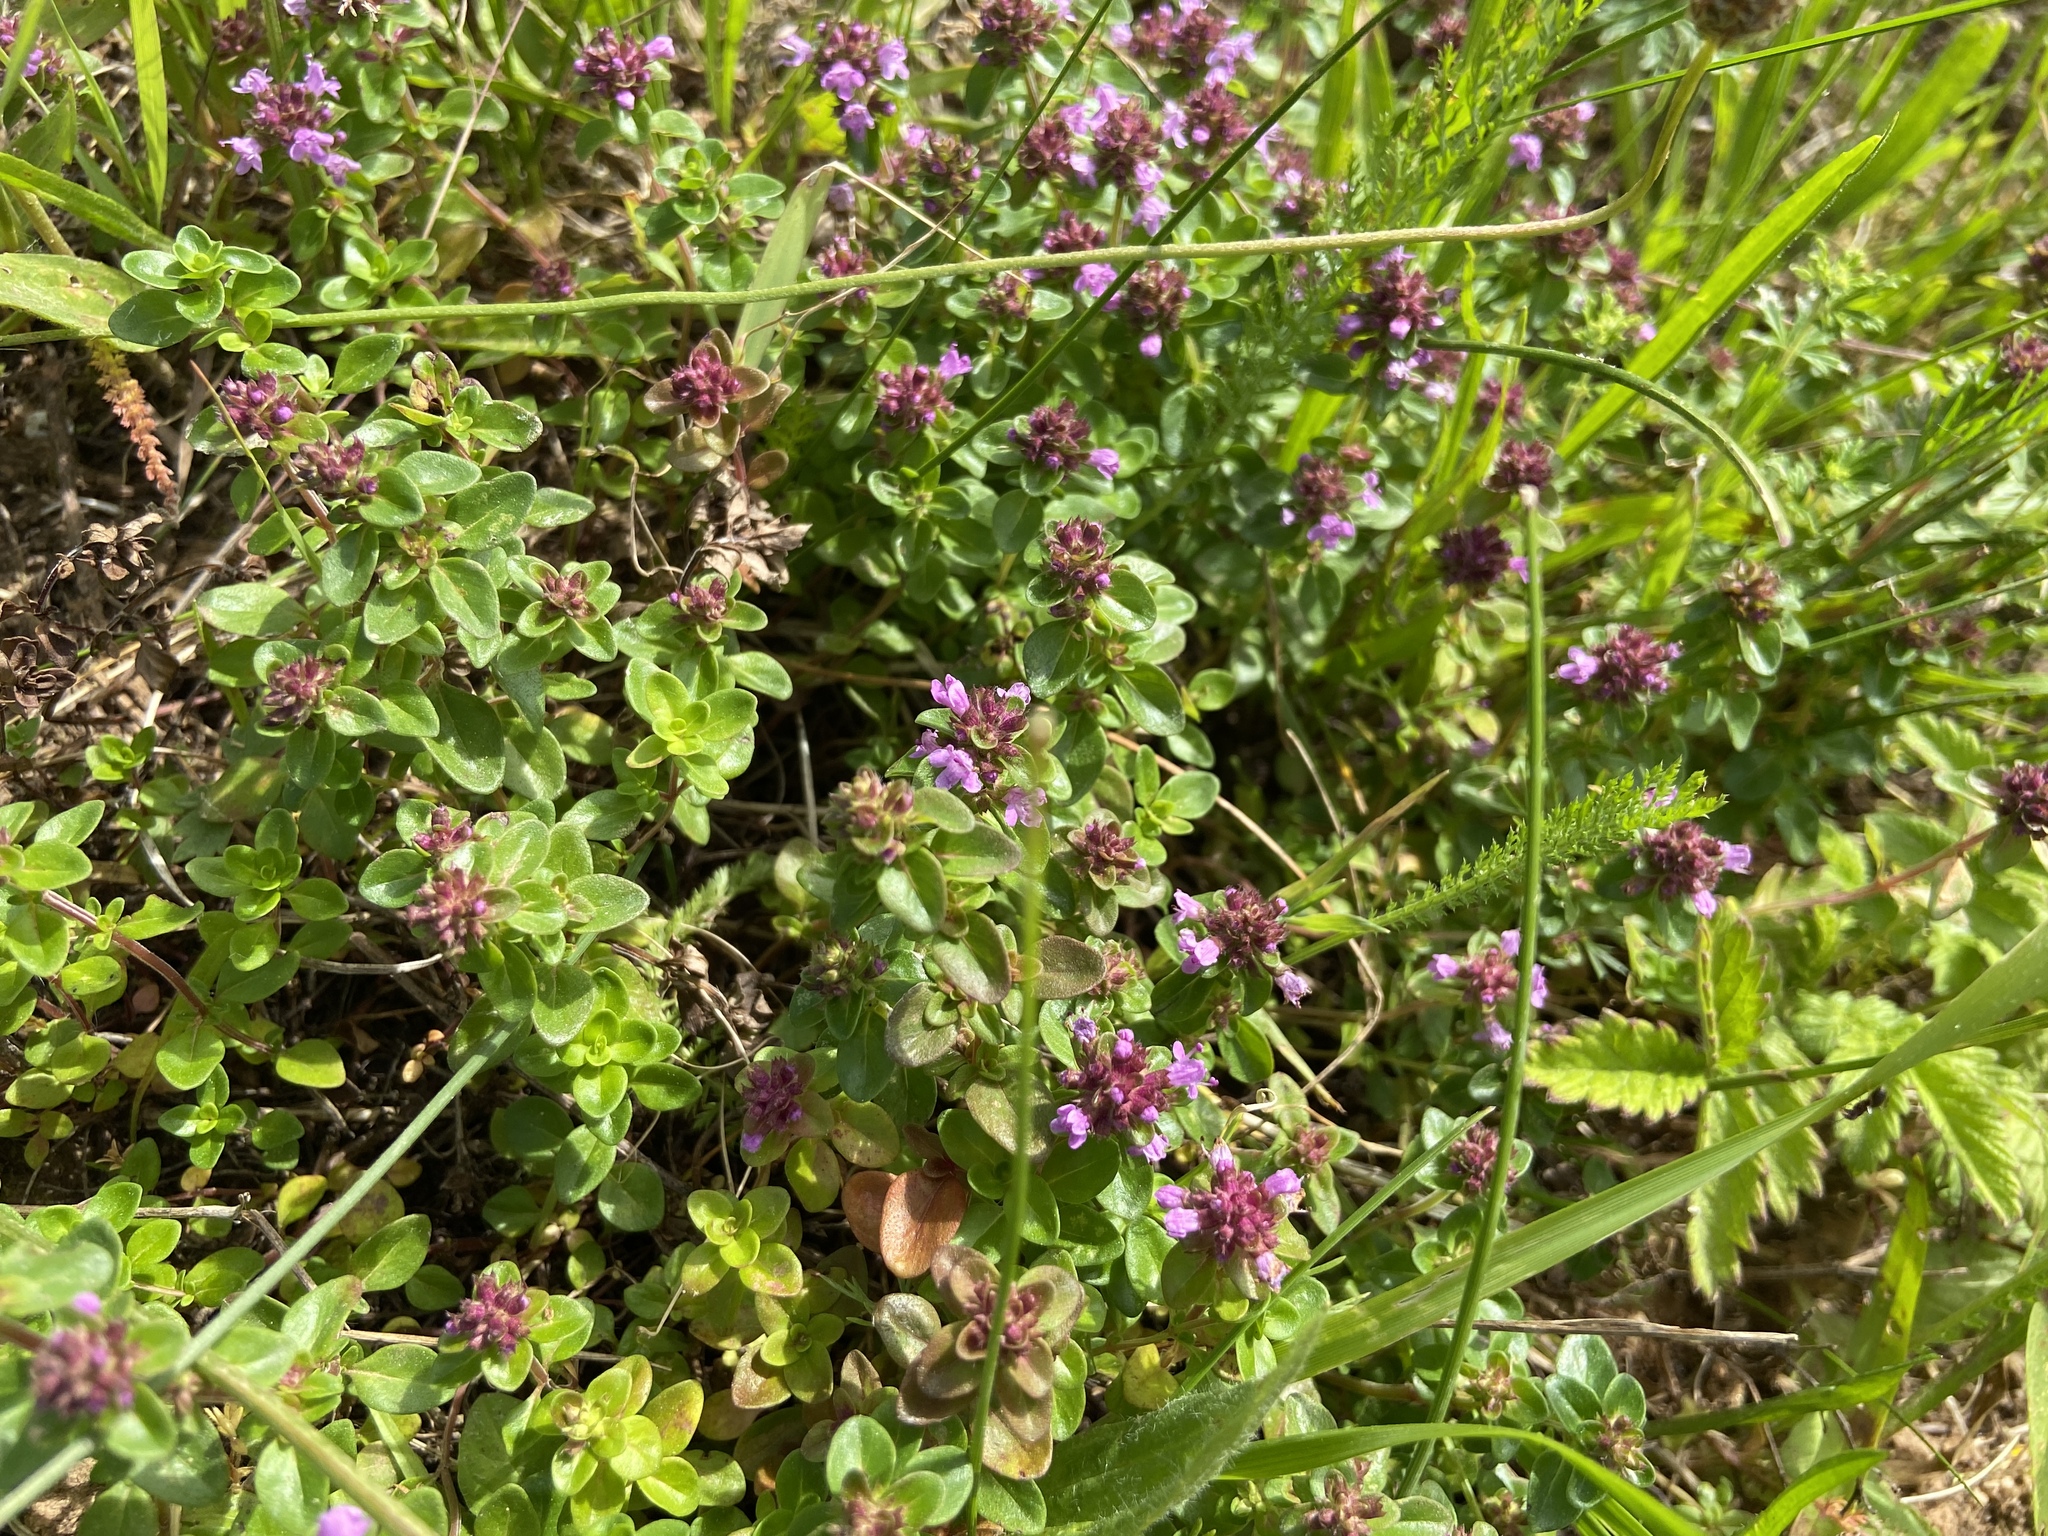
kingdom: Plantae
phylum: Tracheophyta
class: Magnoliopsida
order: Lamiales
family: Lamiaceae
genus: Thymus
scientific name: Thymus pulegioides
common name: Large thyme
